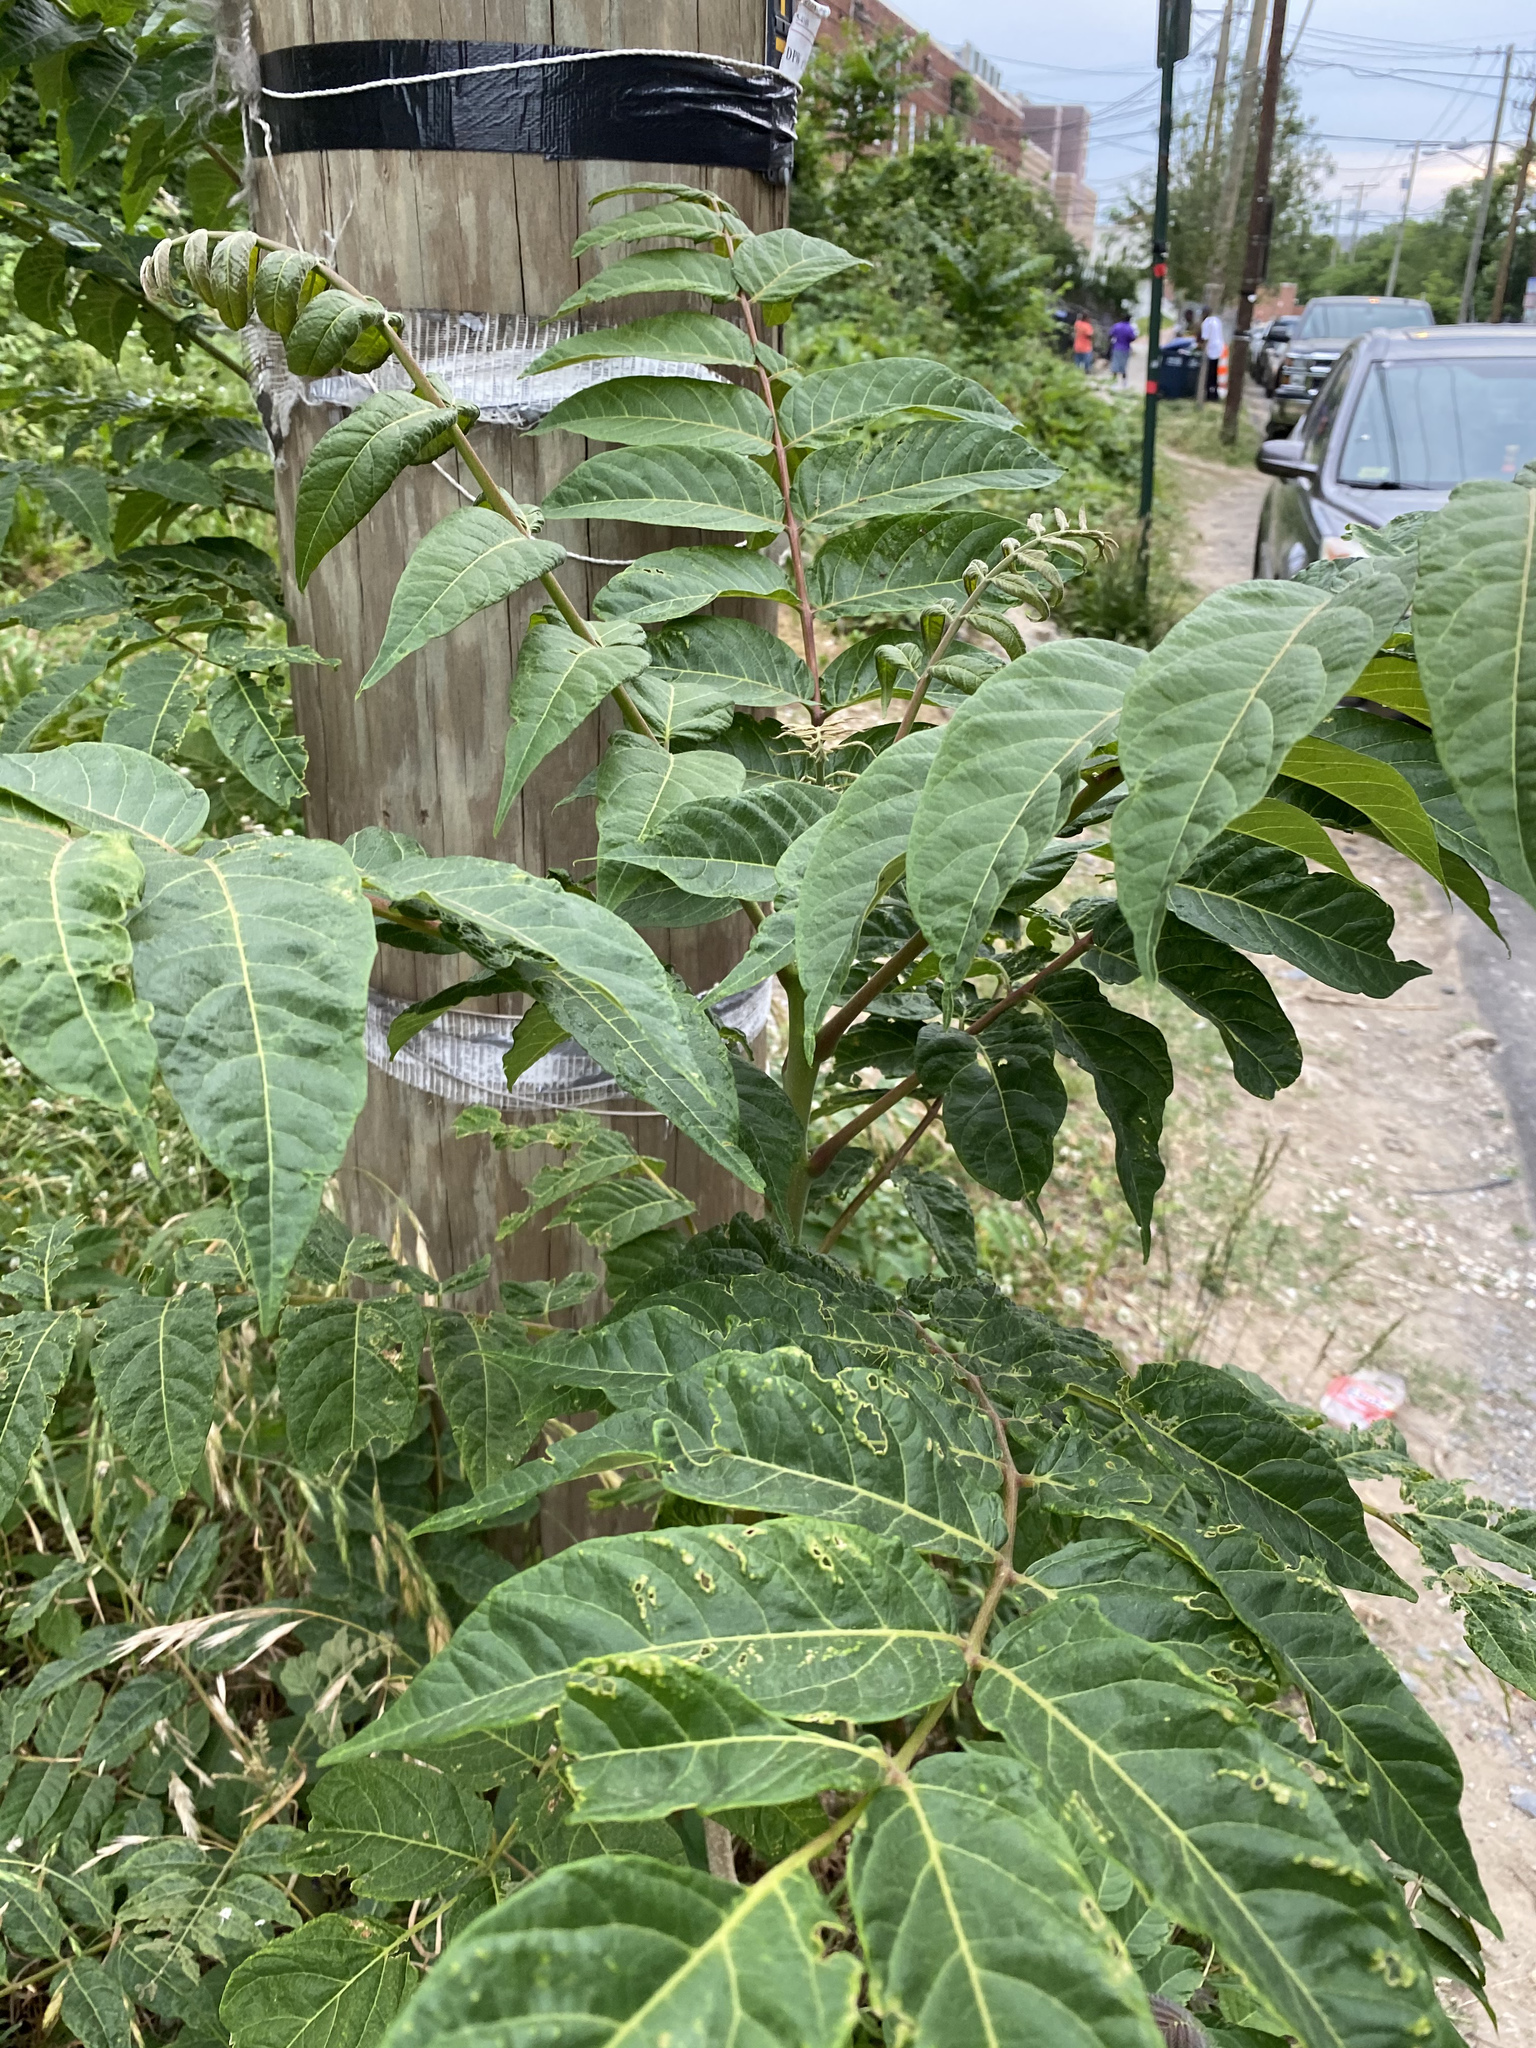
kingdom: Plantae
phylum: Tracheophyta
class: Magnoliopsida
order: Sapindales
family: Simaroubaceae
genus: Ailanthus
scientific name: Ailanthus altissima
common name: Tree-of-heaven
